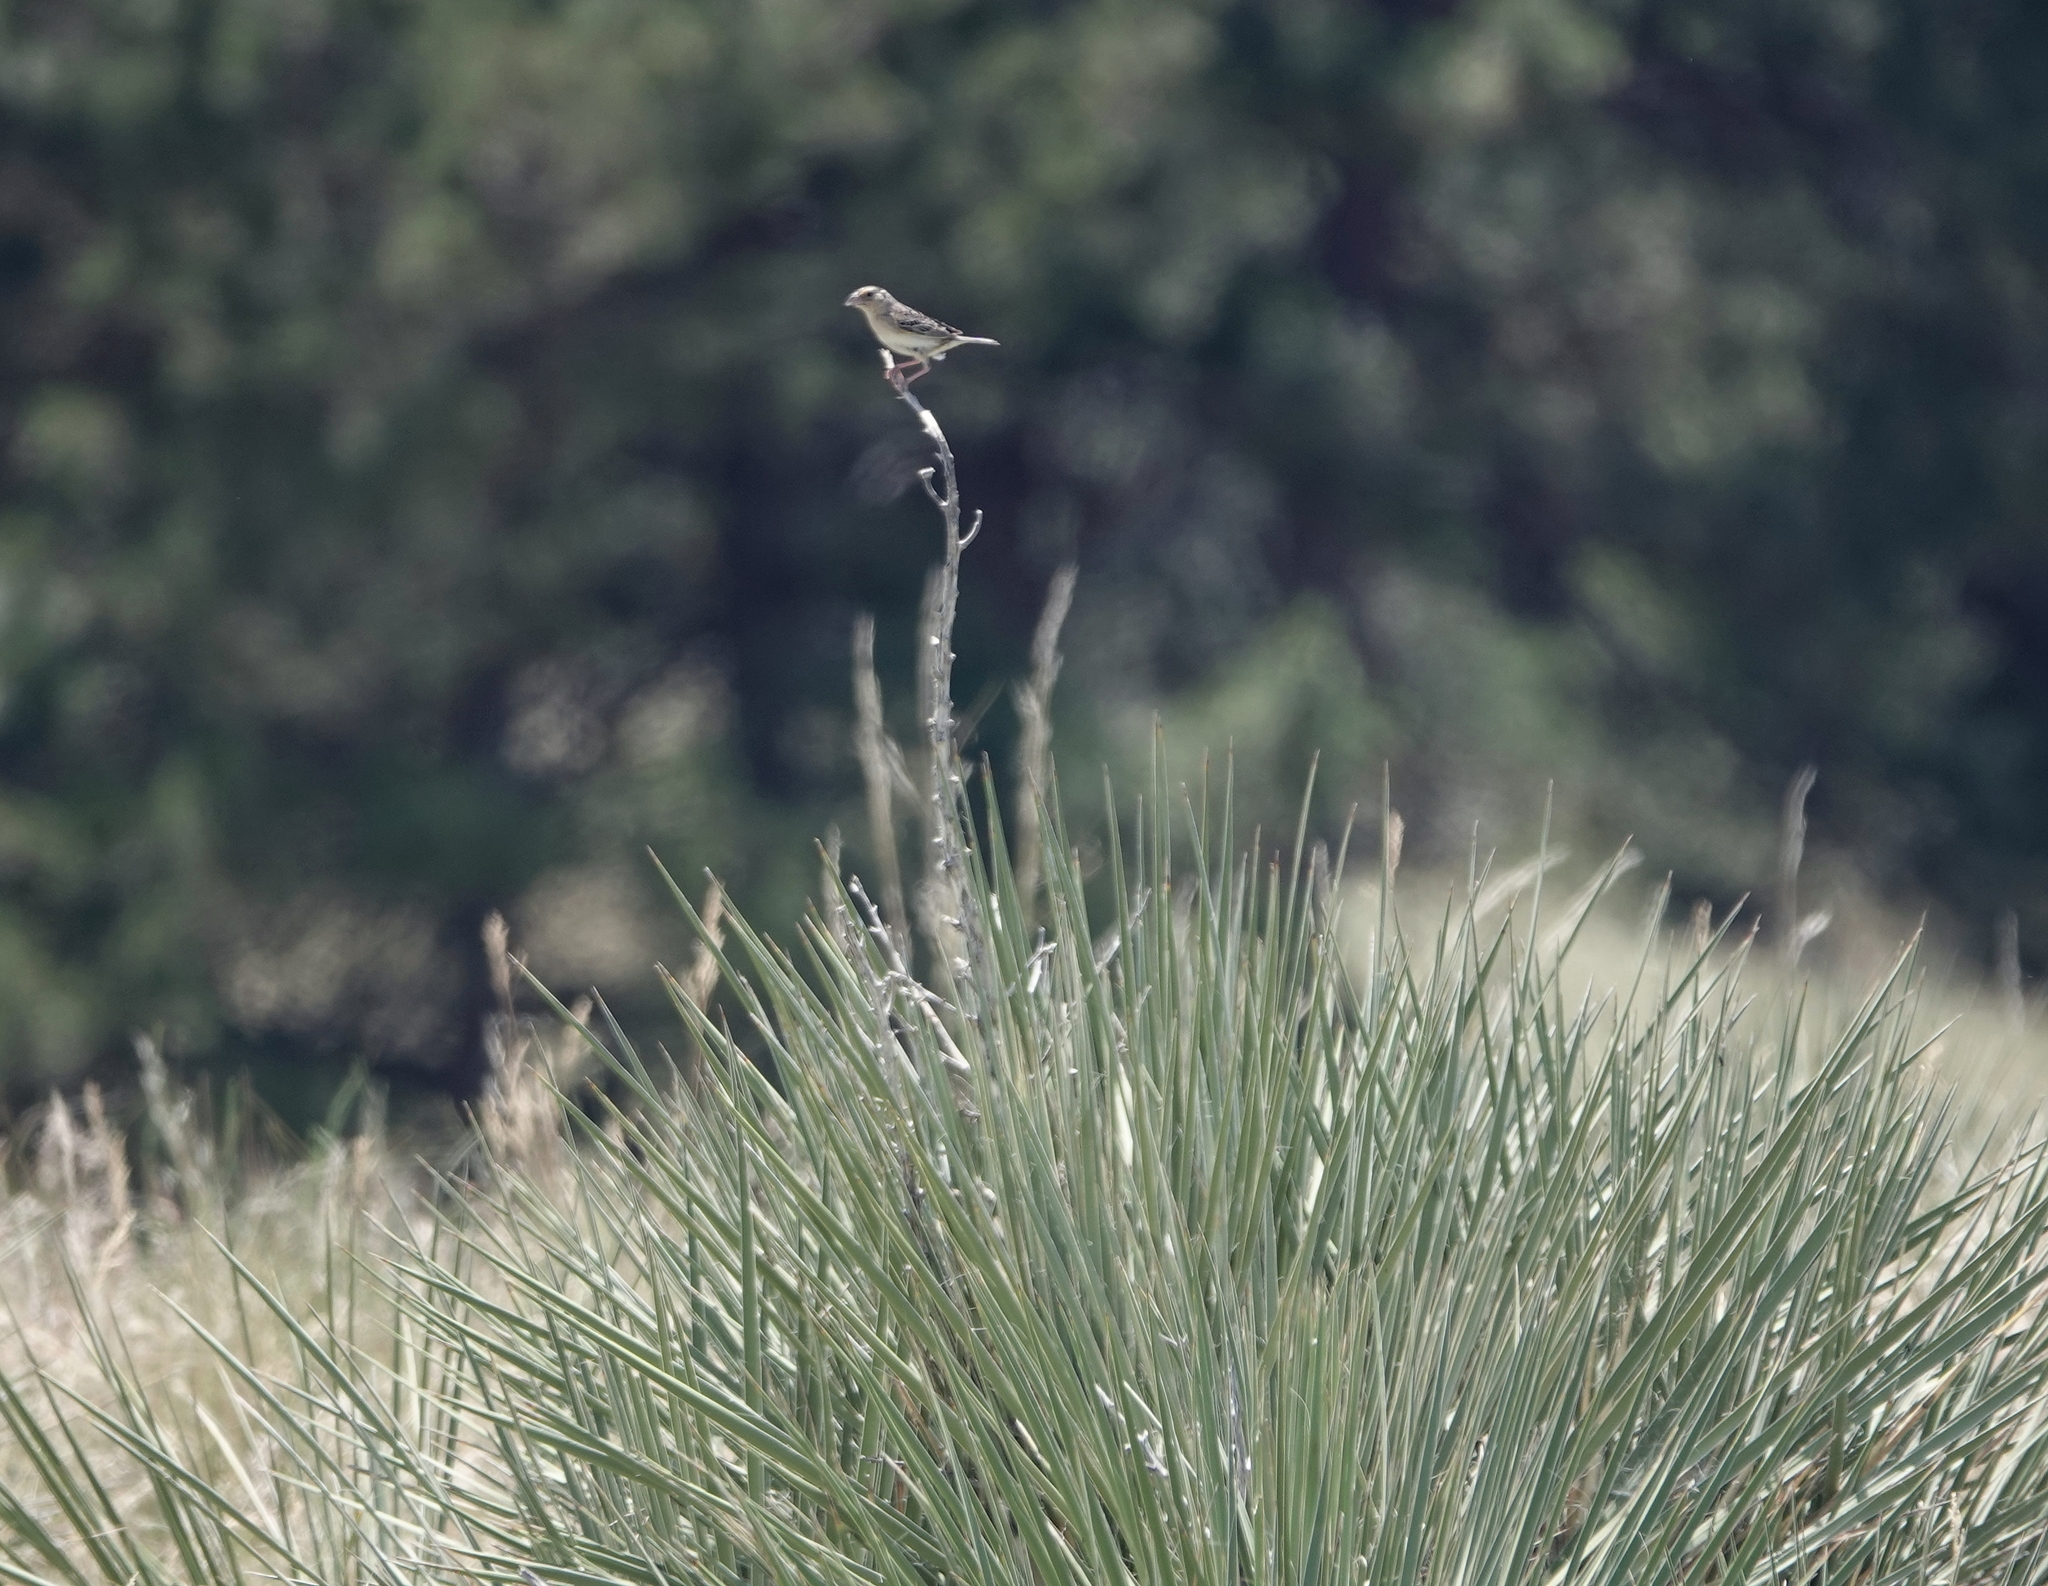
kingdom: Animalia
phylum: Chordata
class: Aves
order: Passeriformes
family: Passerellidae
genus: Ammodramus
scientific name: Ammodramus savannarum
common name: Grasshopper sparrow
